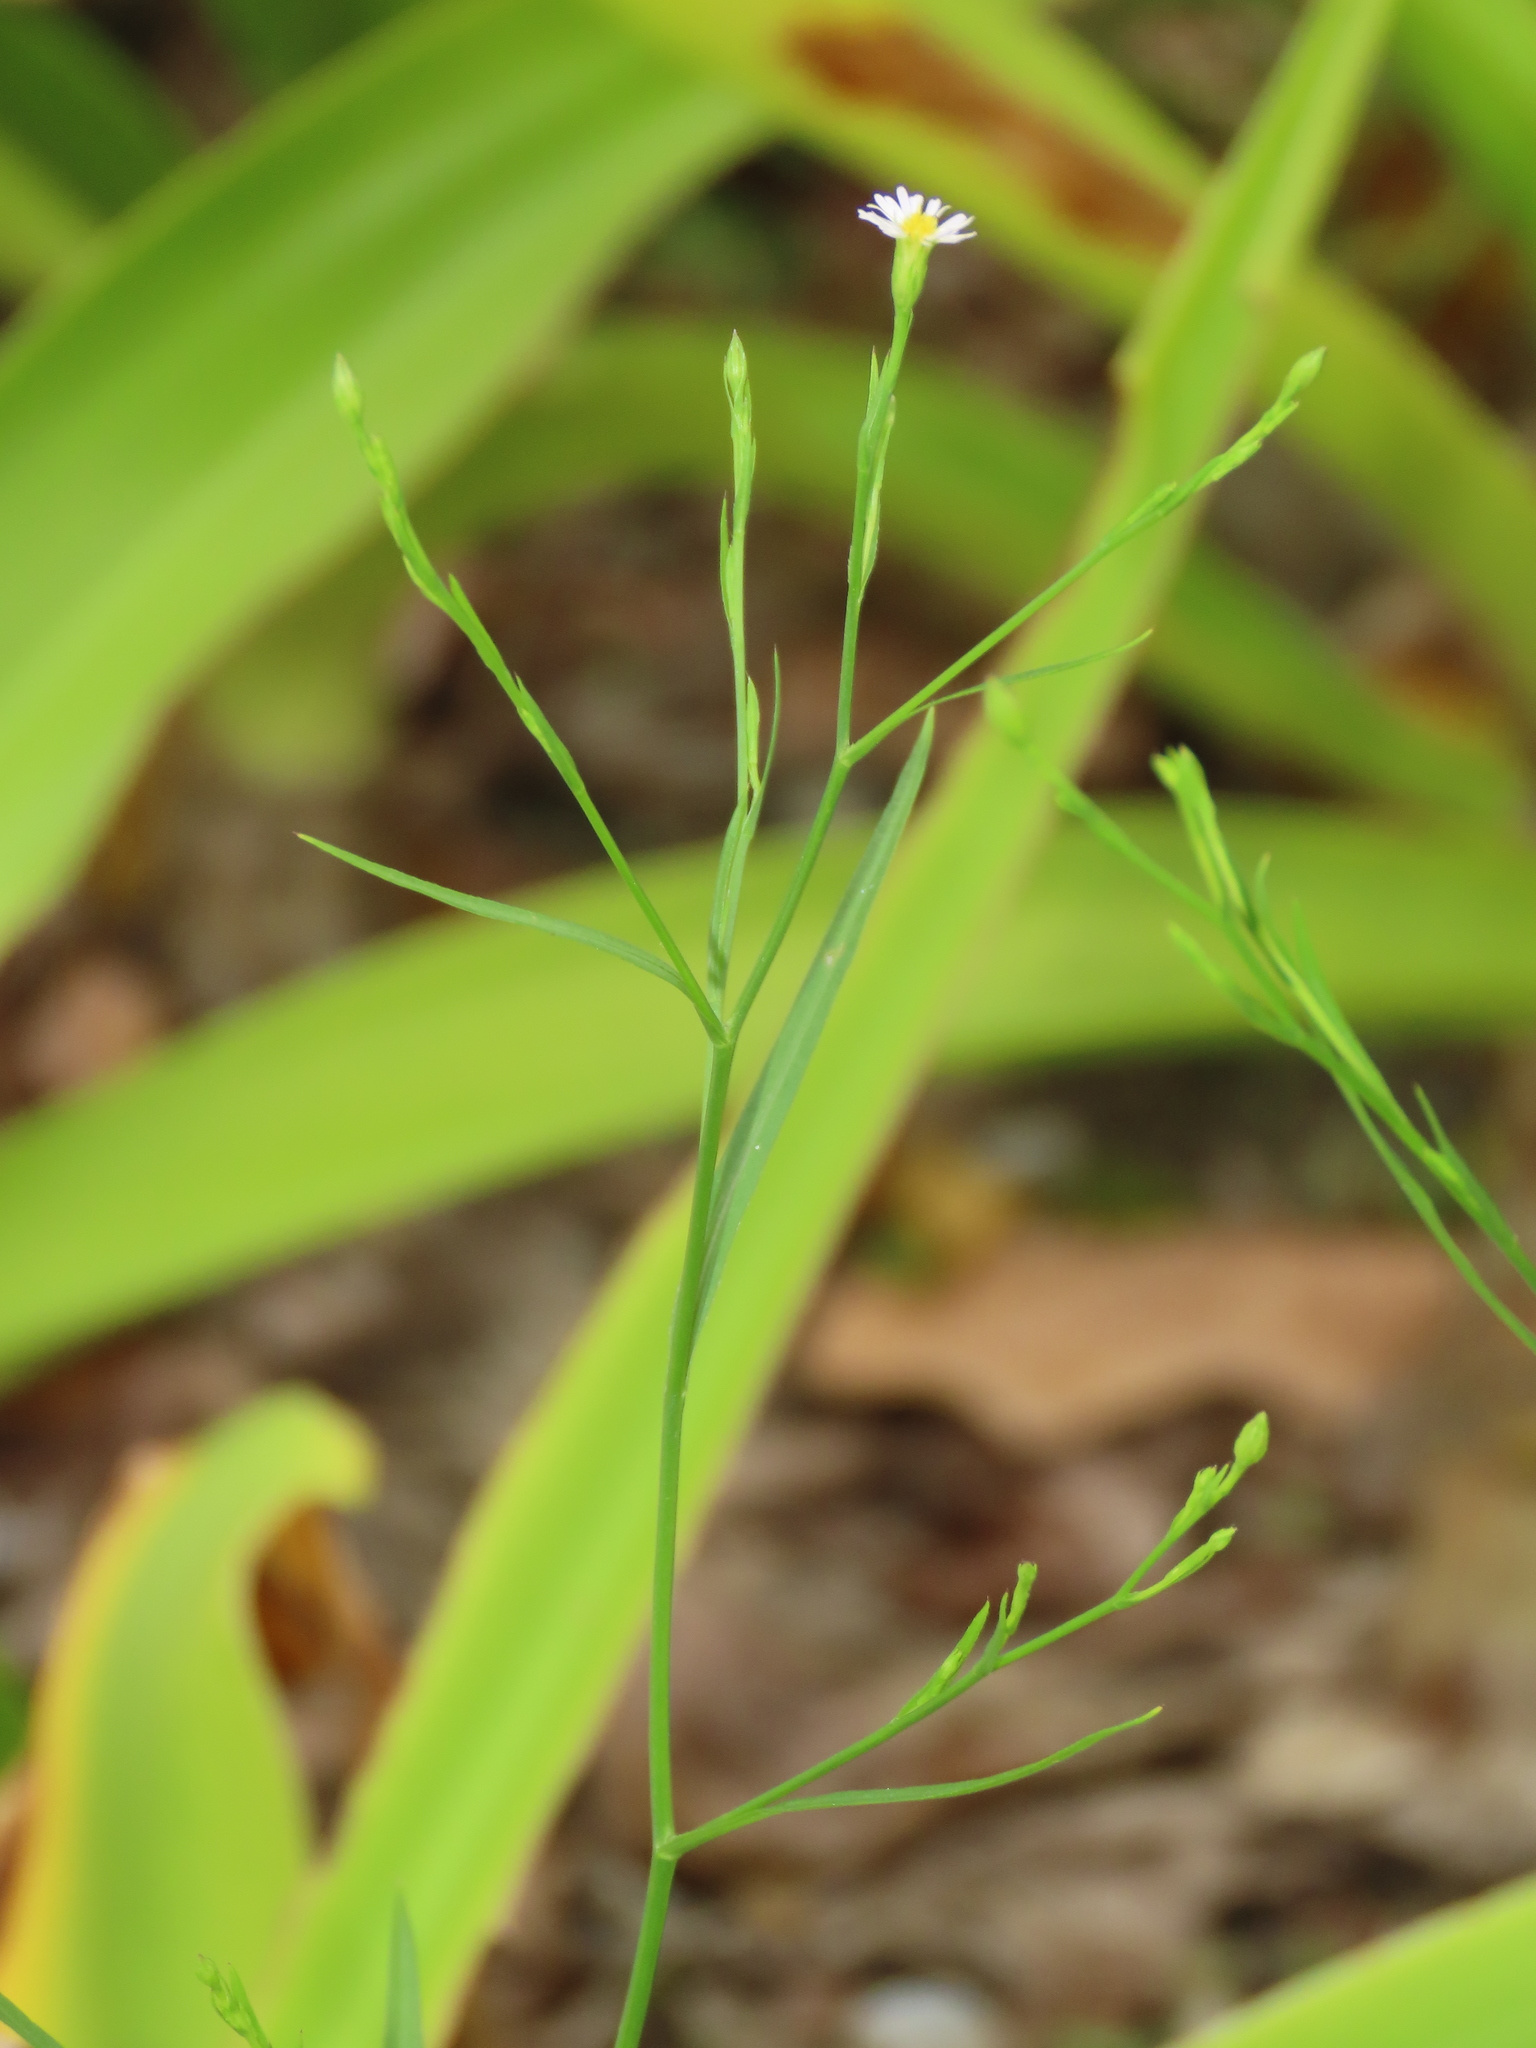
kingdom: Plantae
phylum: Tracheophyta
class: Magnoliopsida
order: Asterales
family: Asteraceae
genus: Symphyotrichum
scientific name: Symphyotrichum subulatum
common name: Annual saltmarsh aster
